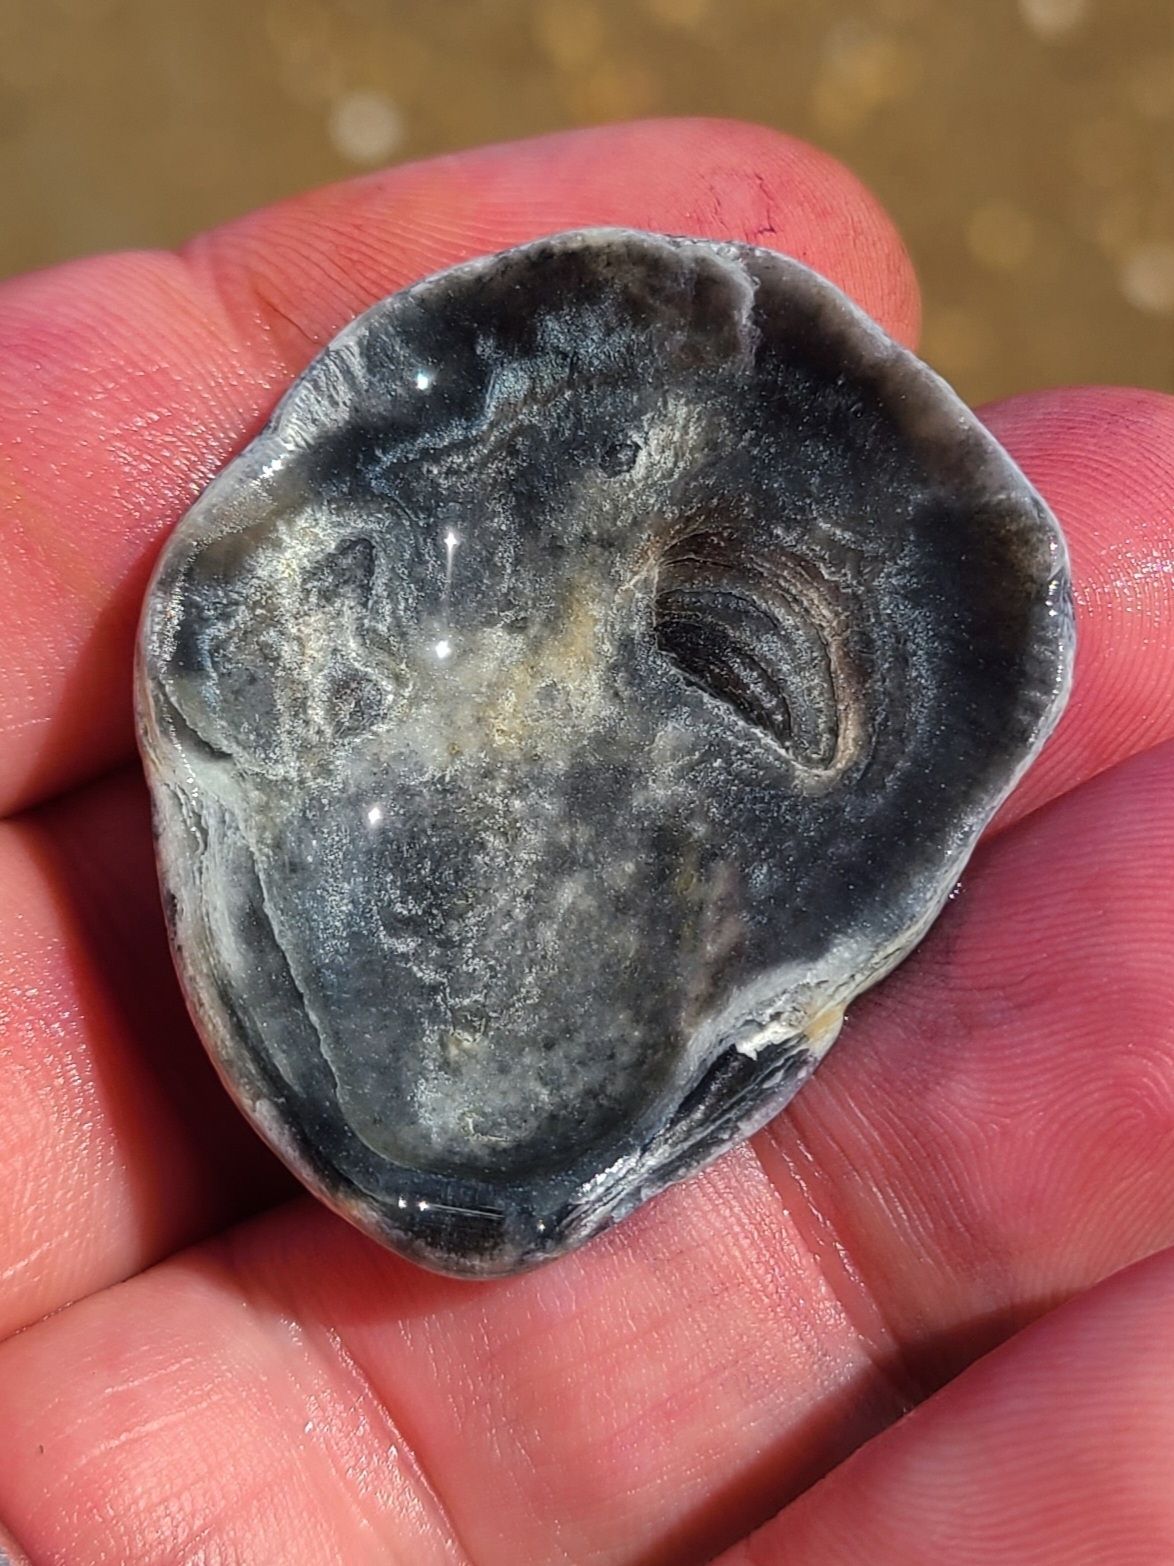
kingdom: Animalia
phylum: Mollusca
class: Bivalvia
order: Ostreida
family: Ostreidae
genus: Crassostrea
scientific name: Crassostrea virginica
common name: American oyster
